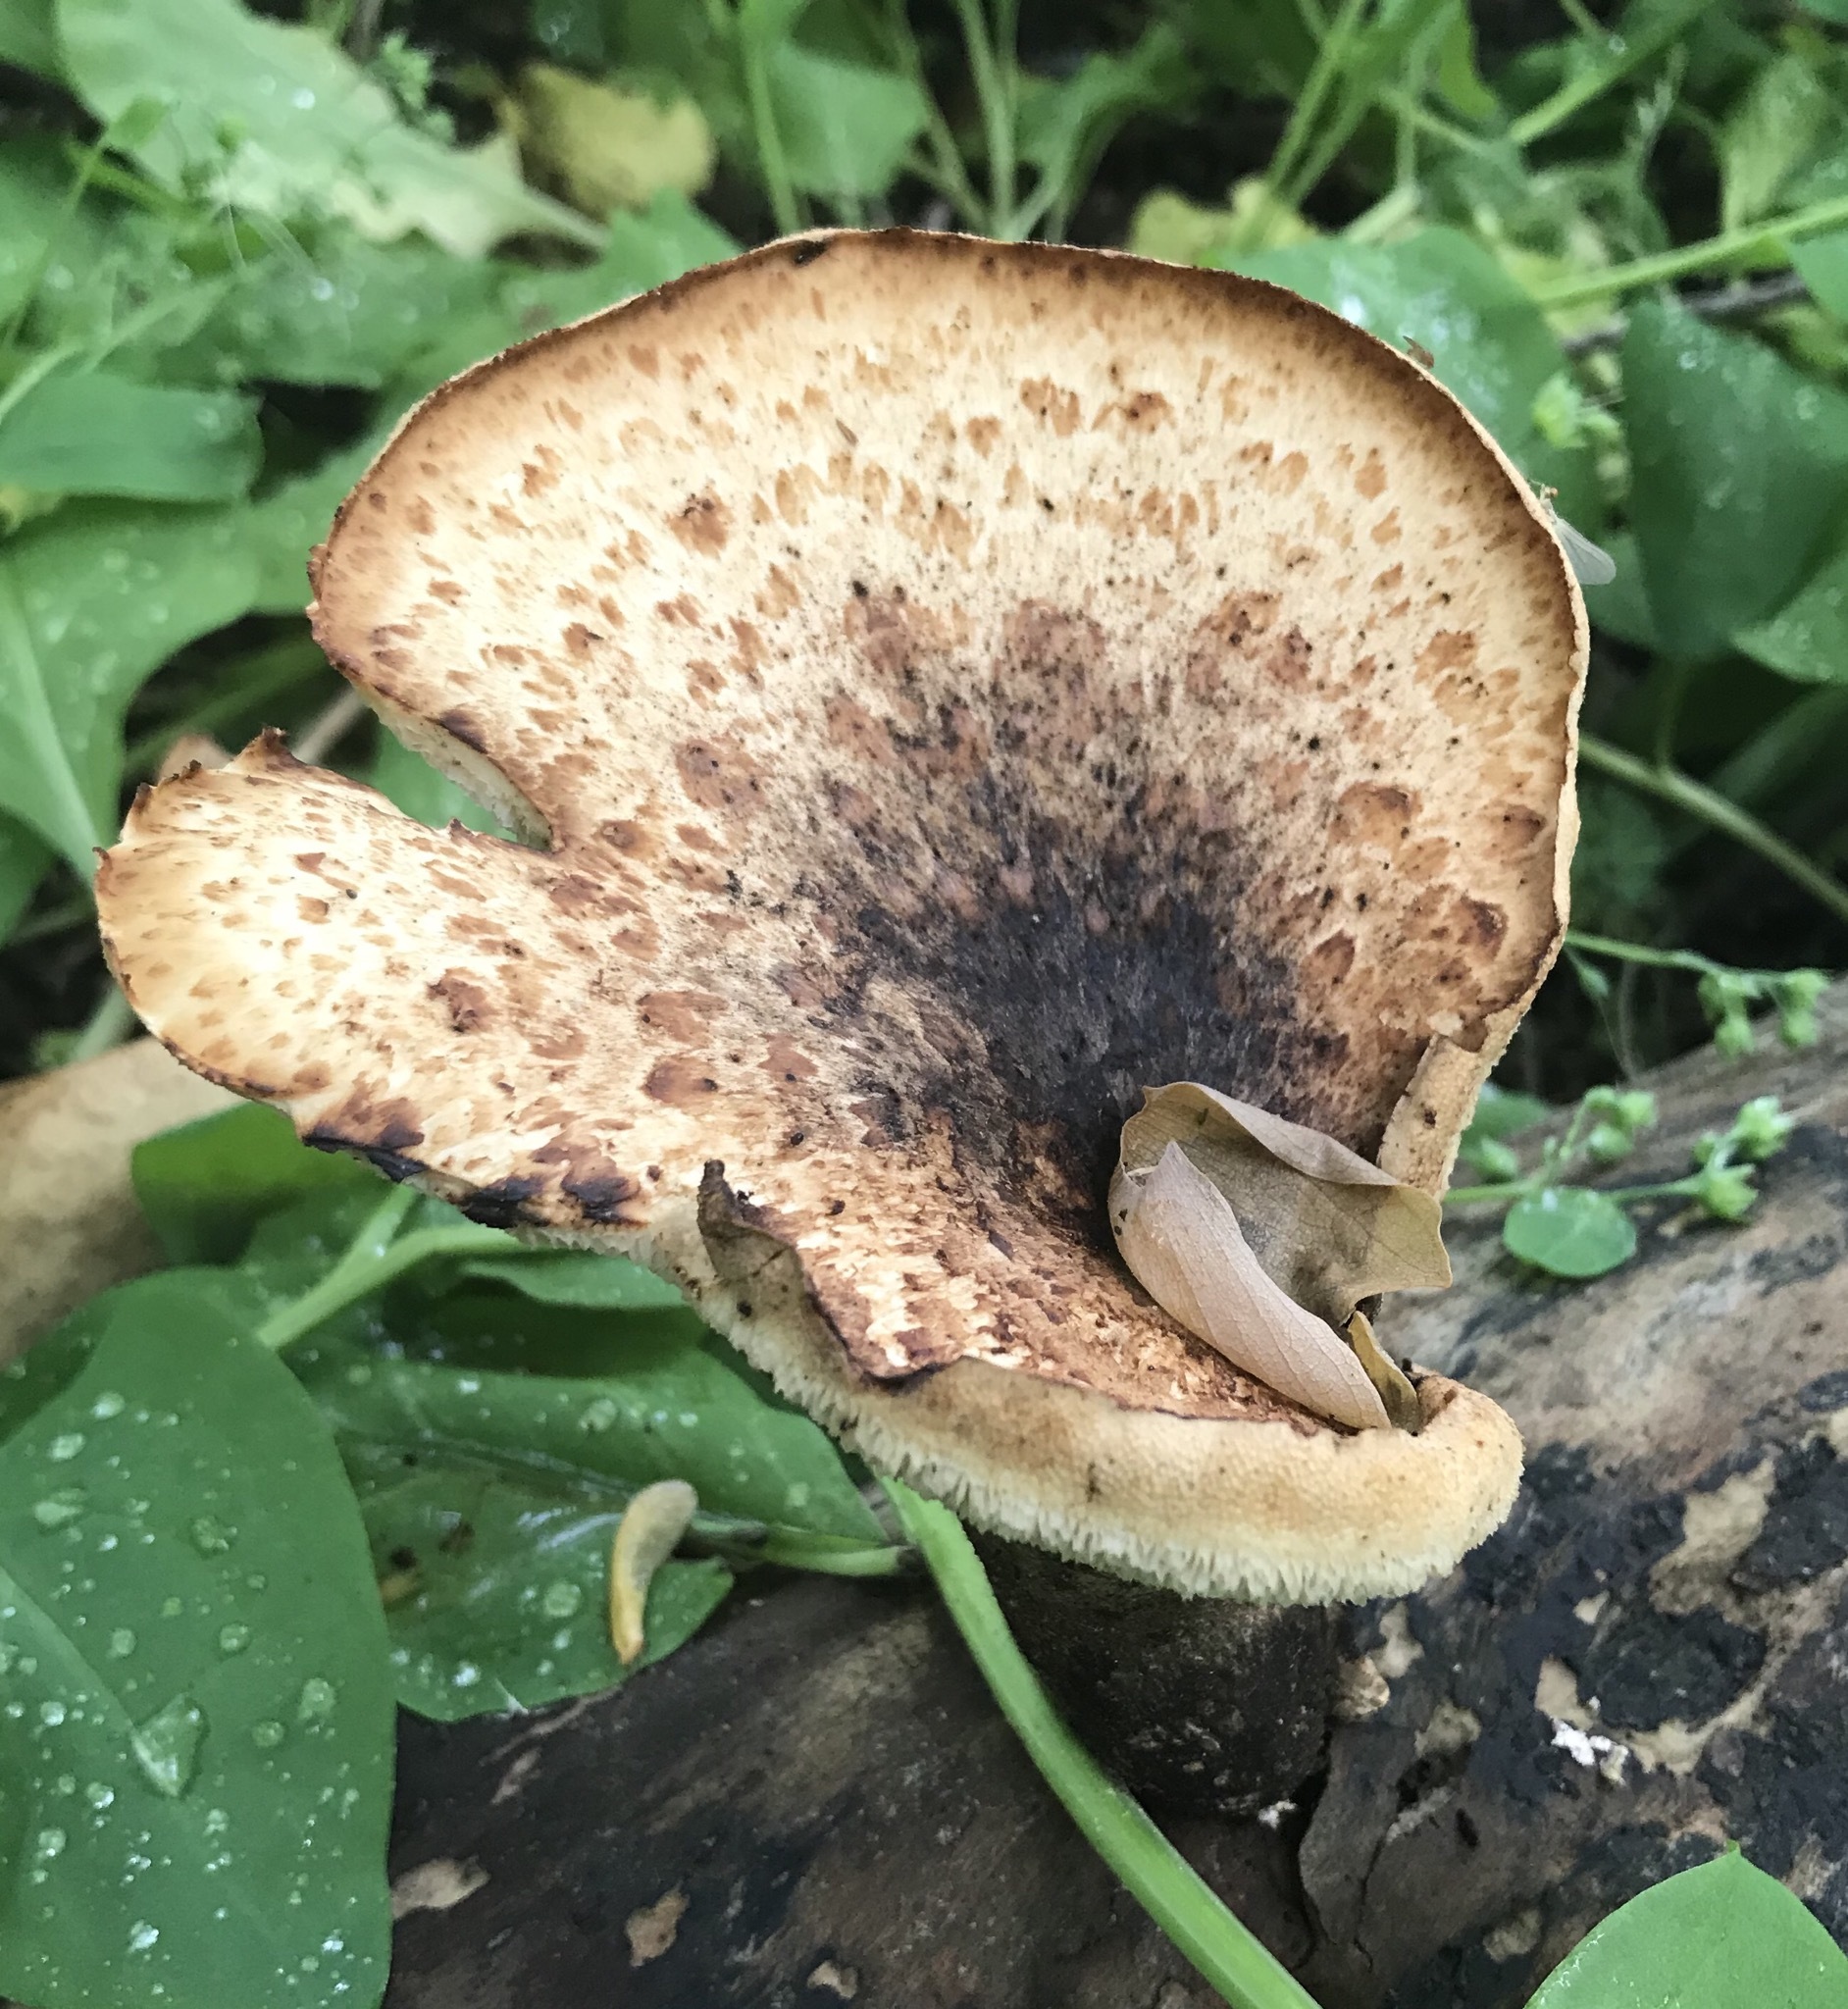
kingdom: Fungi
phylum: Basidiomycota
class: Agaricomycetes
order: Polyporales
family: Polyporaceae
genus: Cerioporus
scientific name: Cerioporus squamosus
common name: Dryad's saddle
